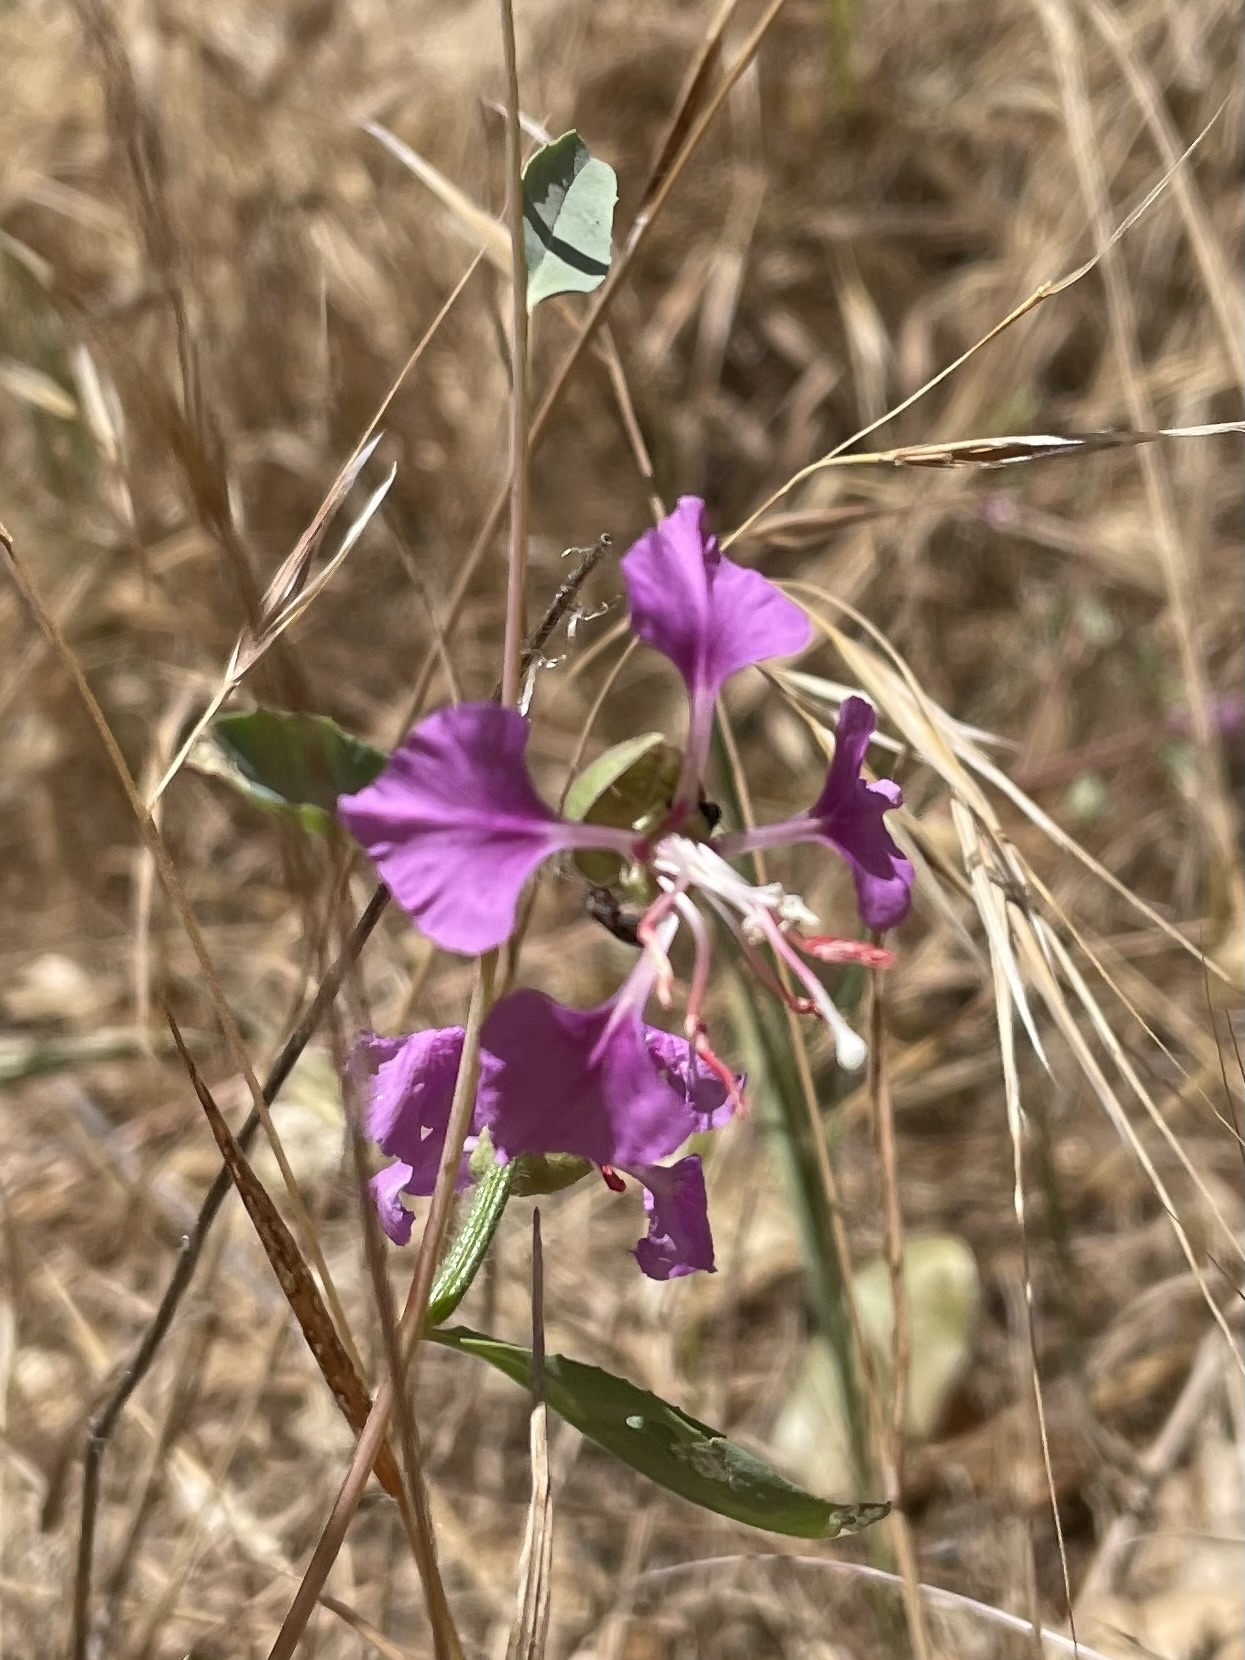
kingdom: Plantae
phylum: Tracheophyta
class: Magnoliopsida
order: Myrtales
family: Onagraceae
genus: Clarkia
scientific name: Clarkia unguiculata
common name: Clarkia
